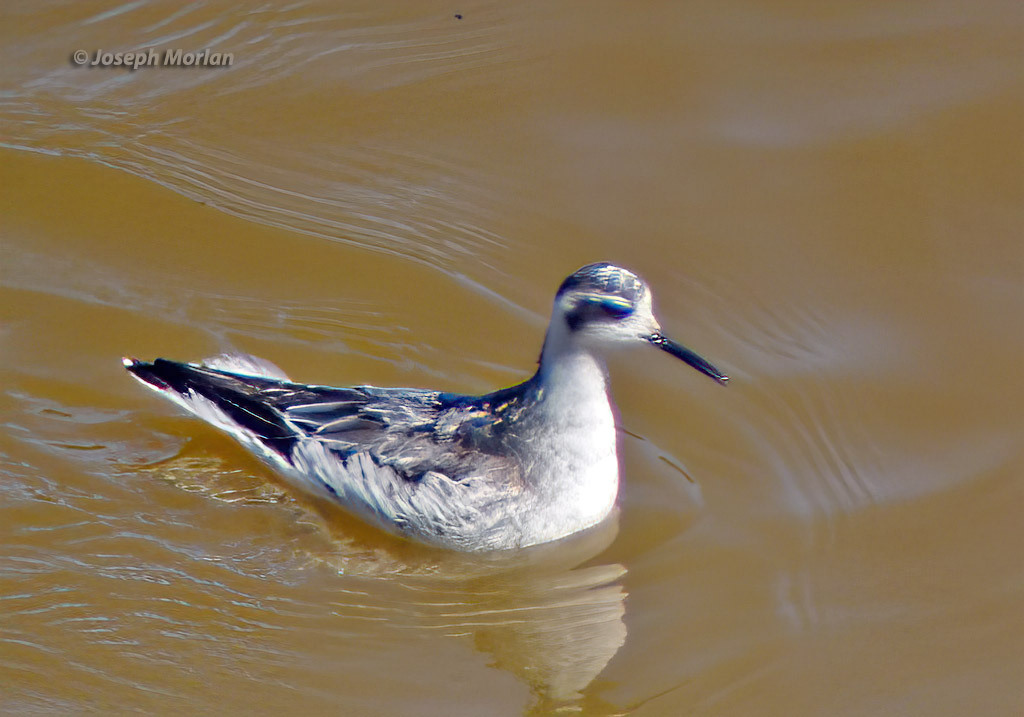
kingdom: Animalia
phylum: Chordata
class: Aves
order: Charadriiformes
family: Scolopacidae
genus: Phalaropus
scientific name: Phalaropus lobatus
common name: Red-necked phalarope
